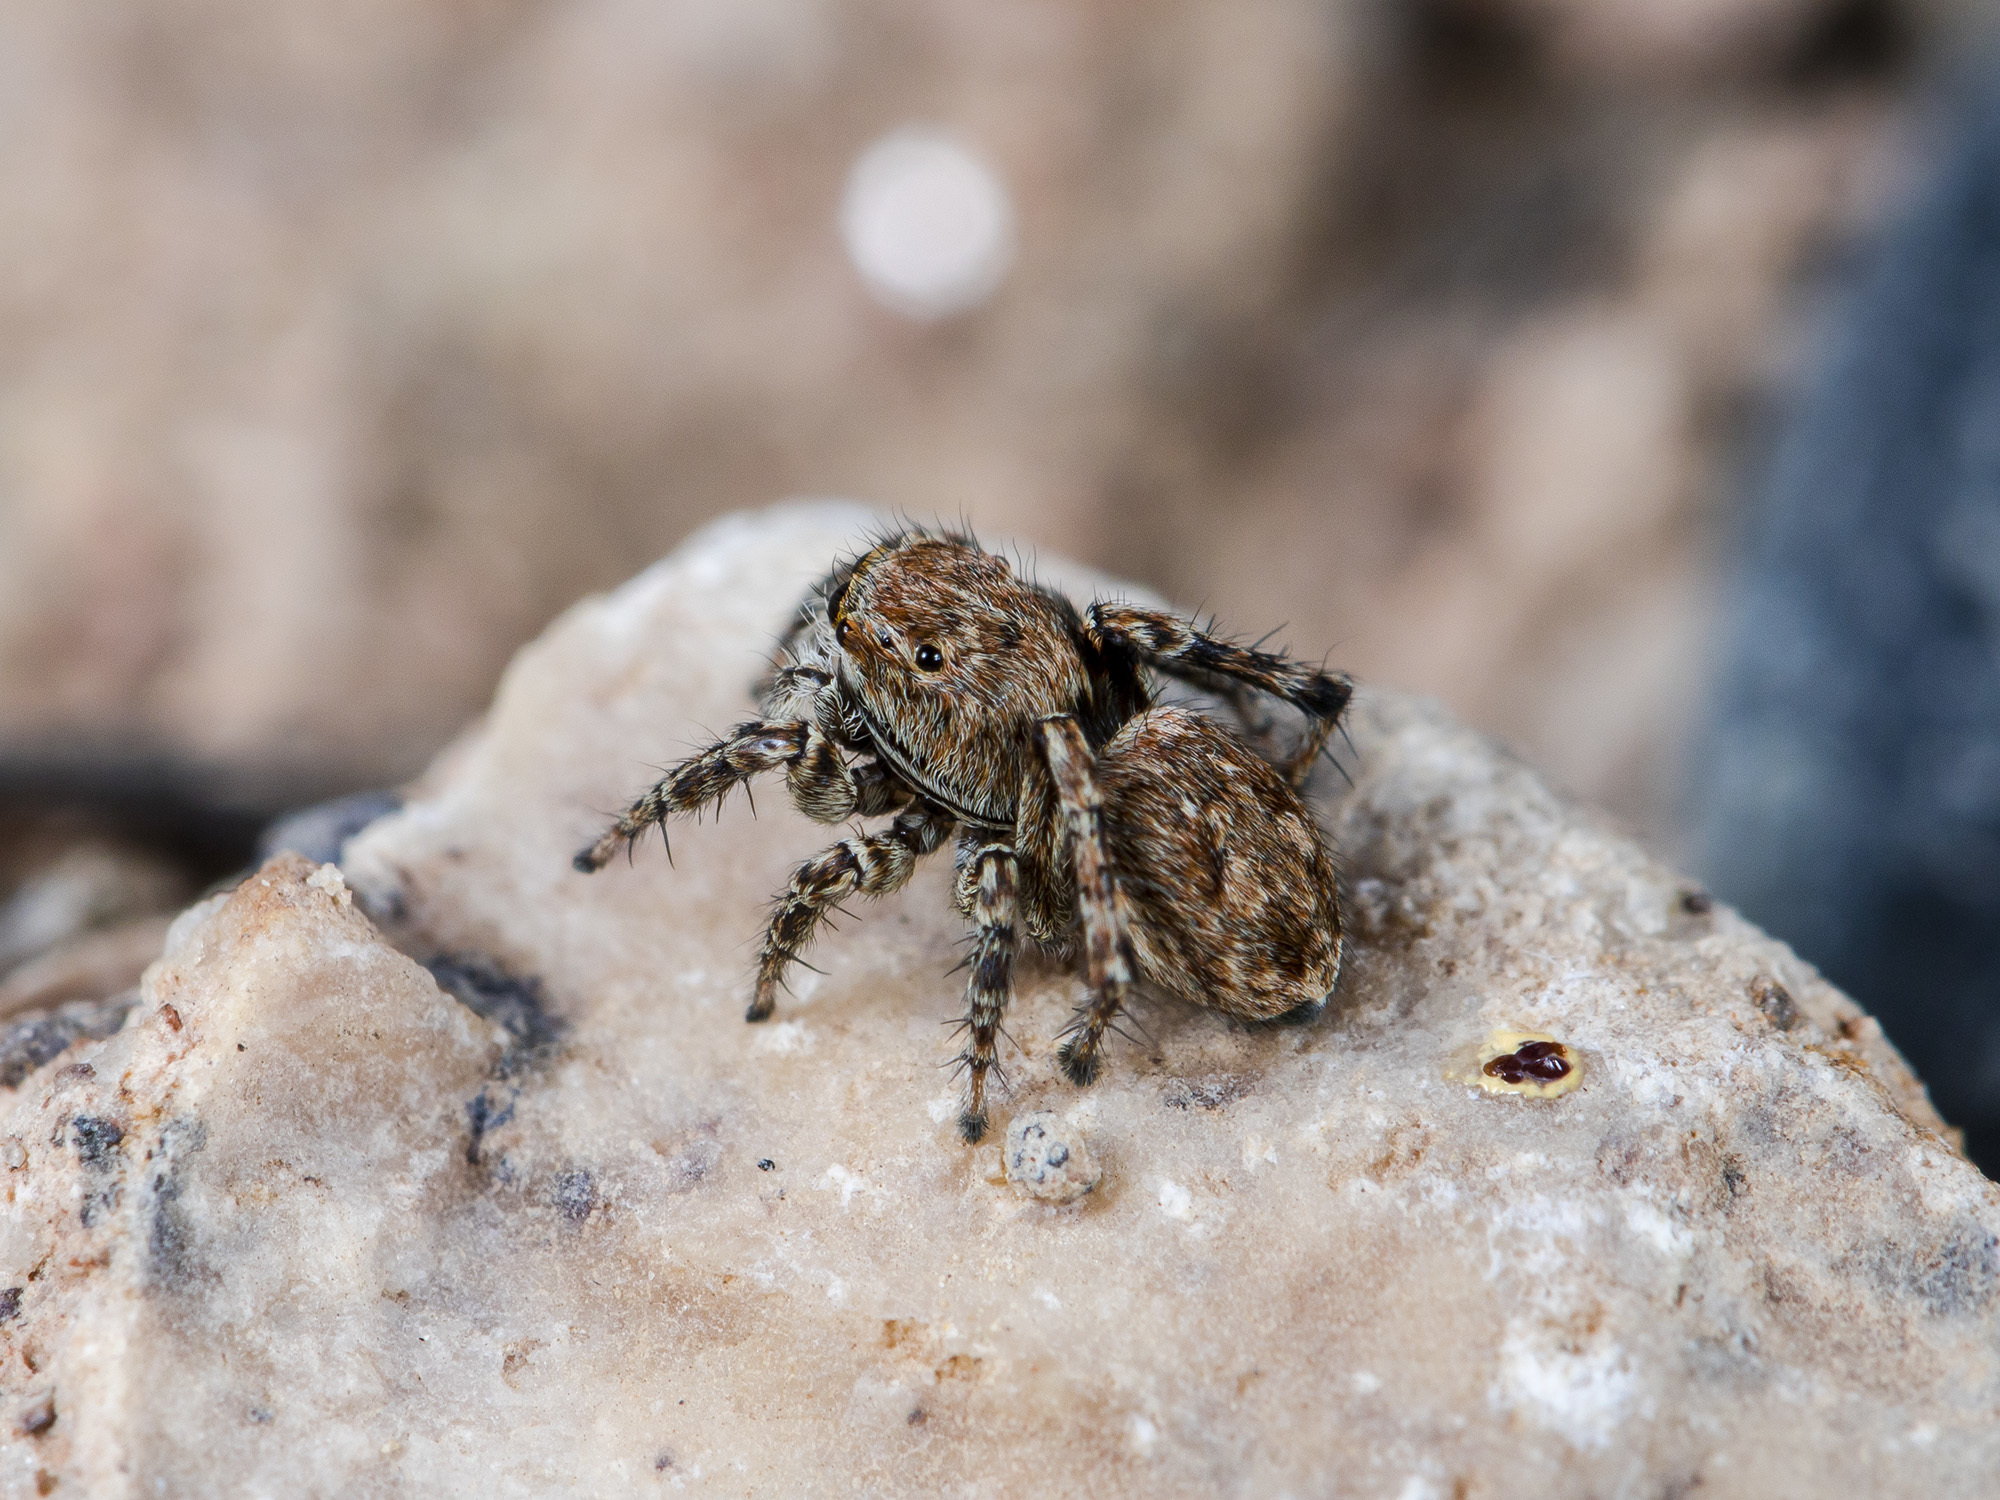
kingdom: Animalia
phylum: Arthropoda
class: Arachnida
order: Araneae
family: Salticidae
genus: Attulus
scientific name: Attulus mirandus
